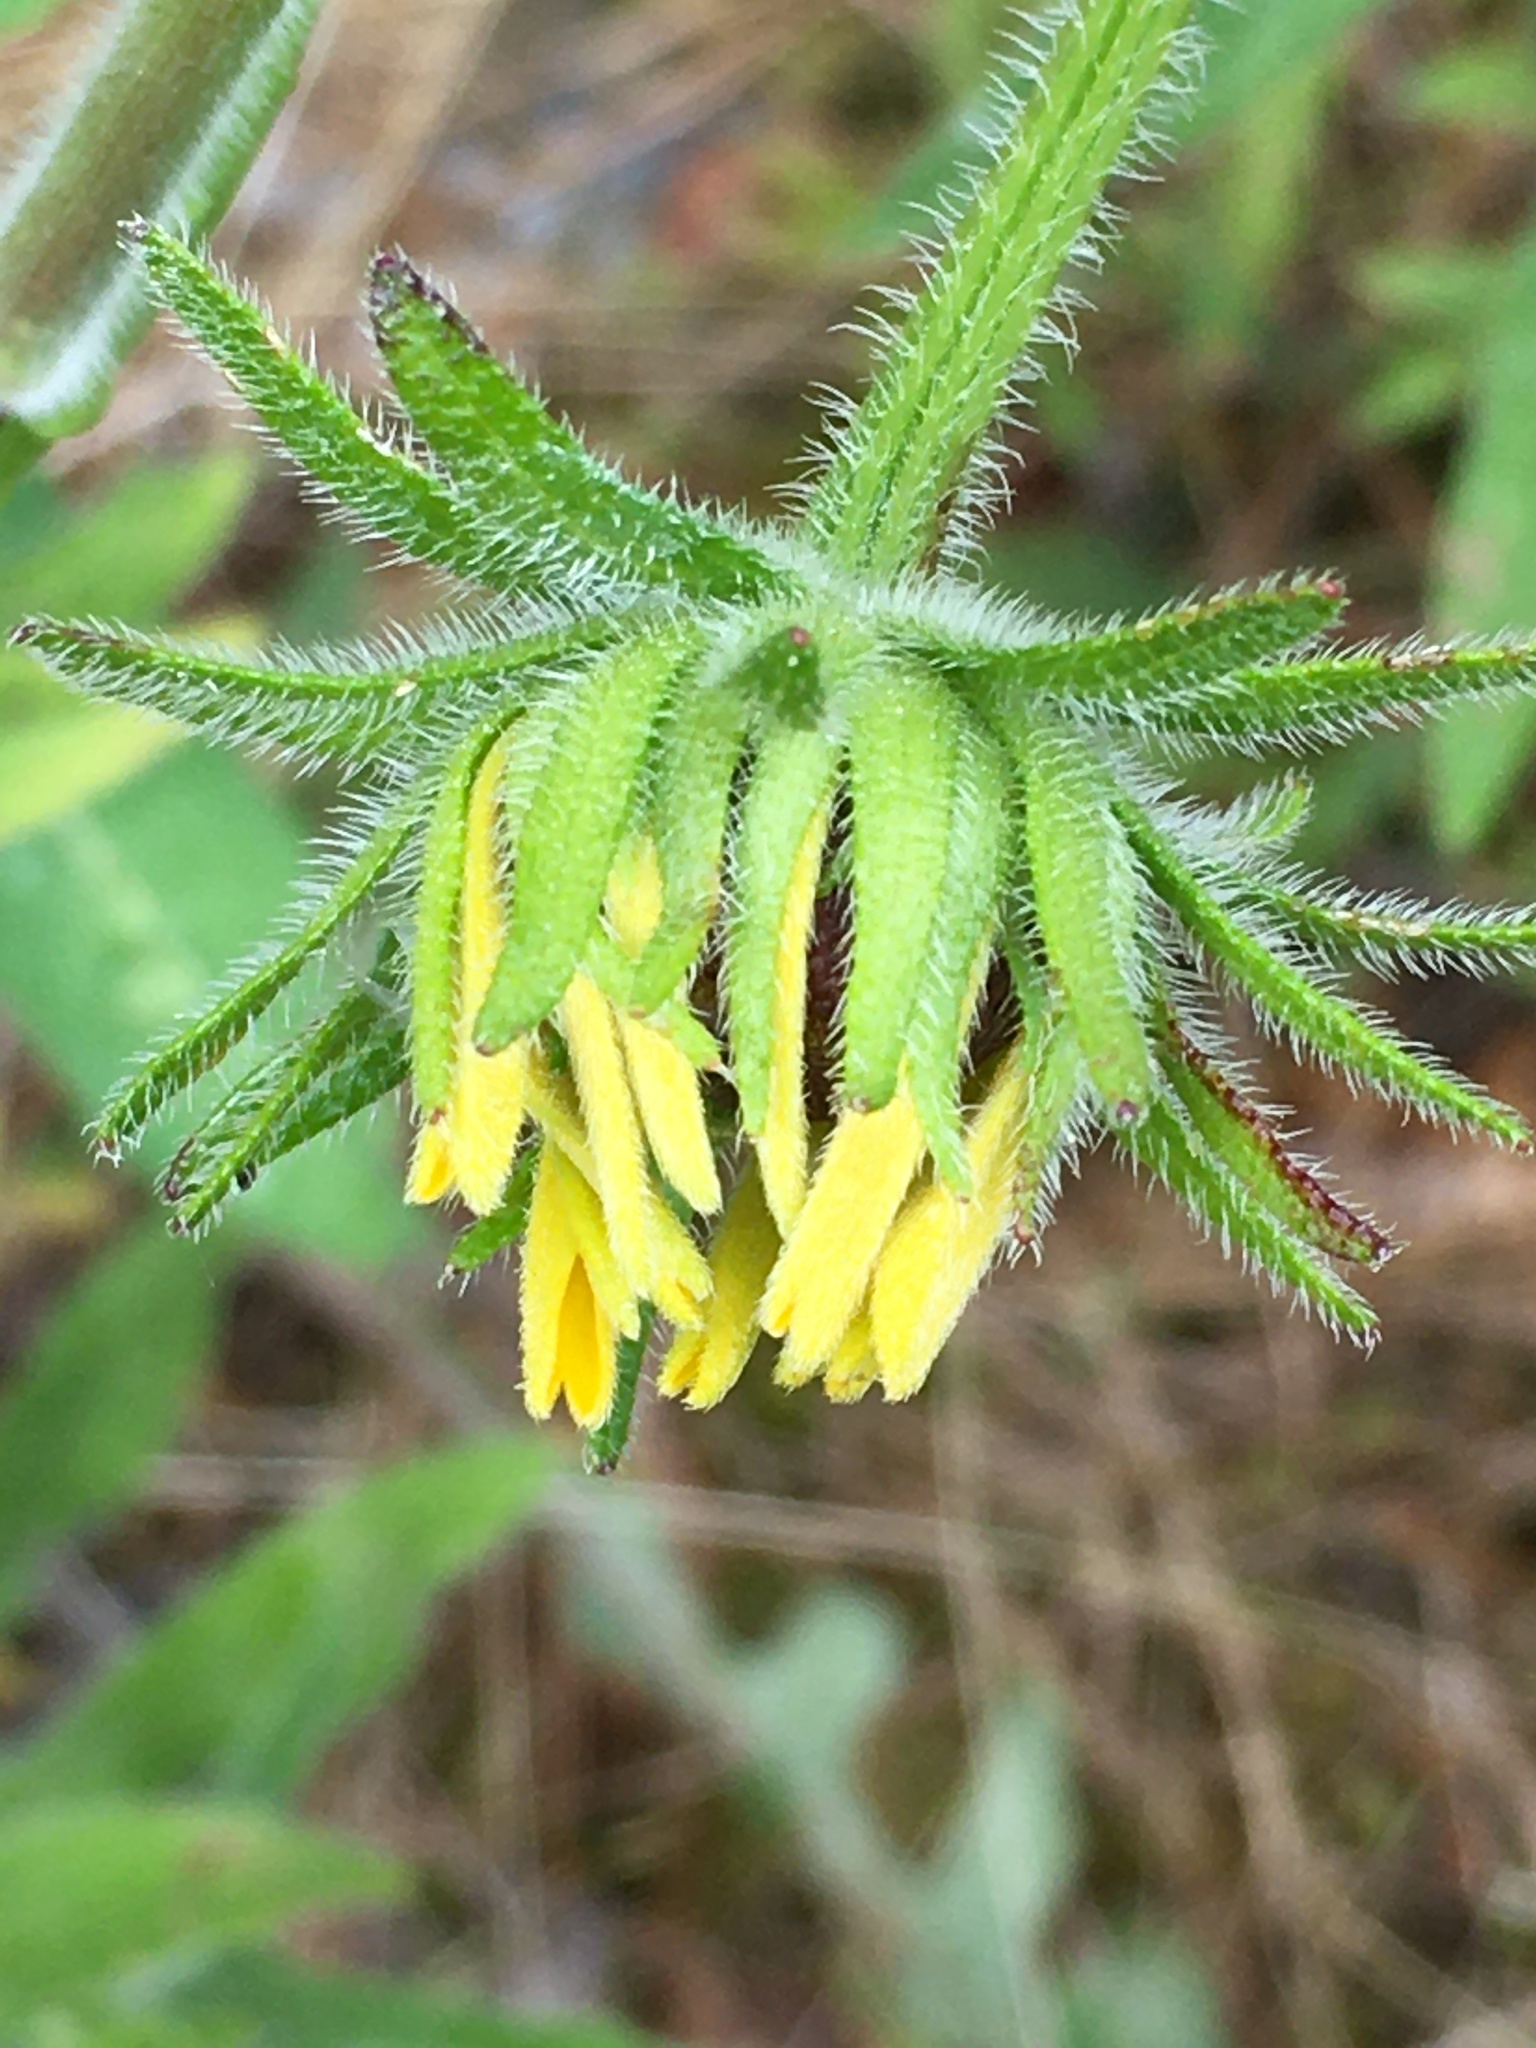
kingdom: Plantae
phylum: Tracheophyta
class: Magnoliopsida
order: Asterales
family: Asteraceae
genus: Rudbeckia
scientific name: Rudbeckia hirta
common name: Black-eyed-susan
